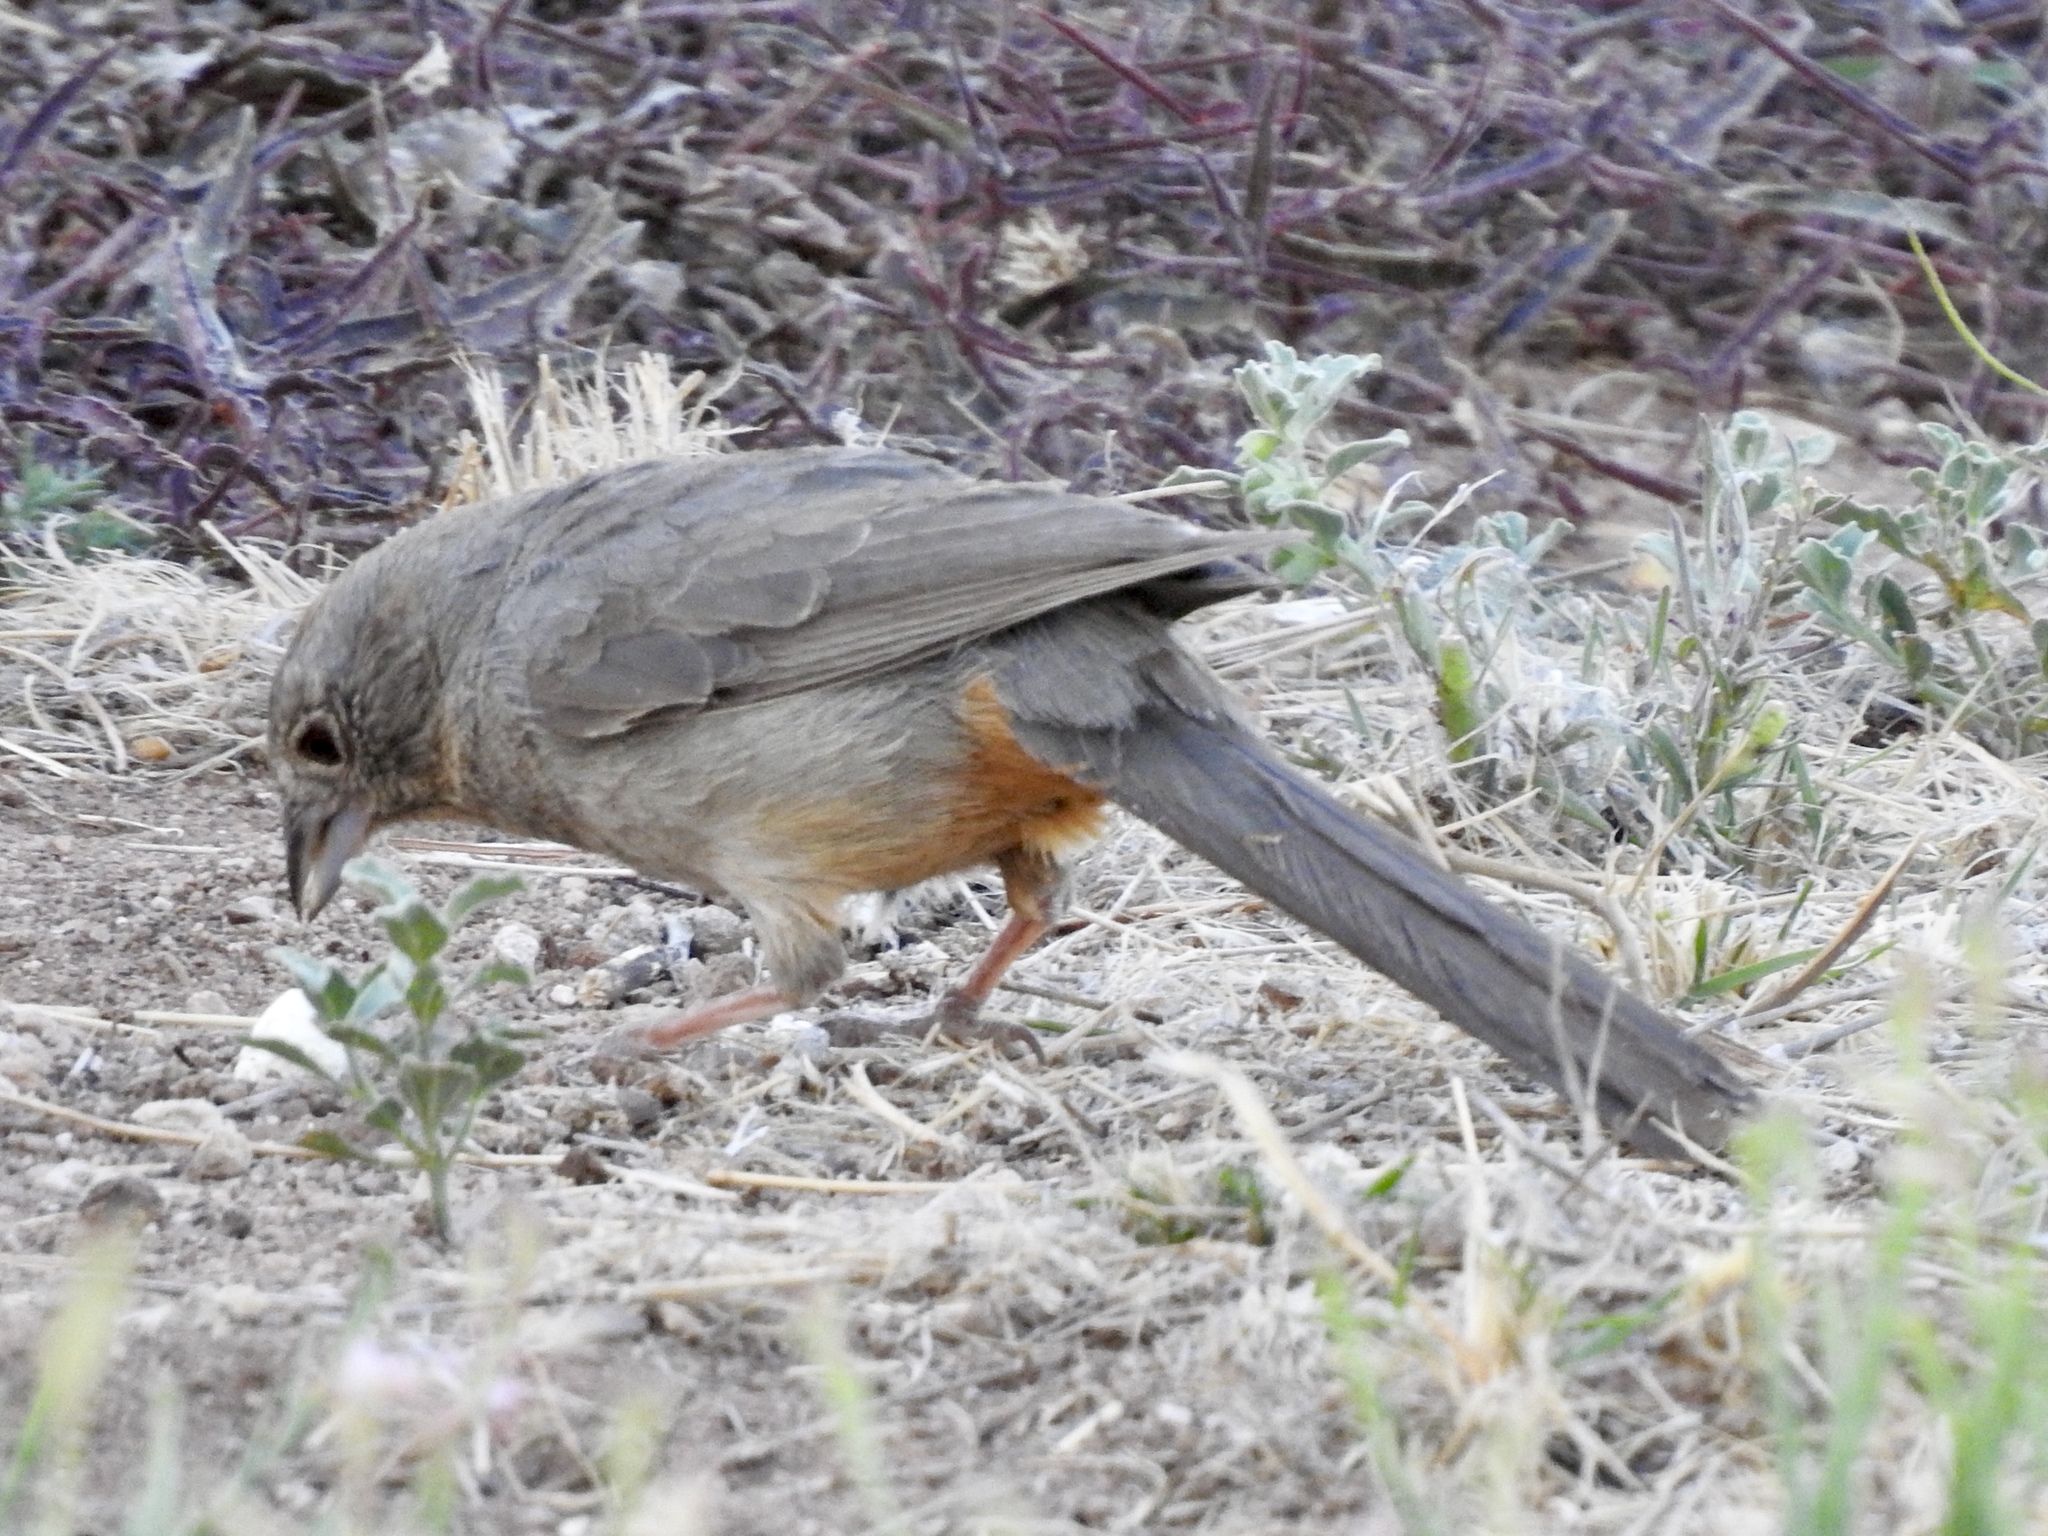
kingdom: Animalia
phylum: Chordata
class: Aves
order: Passeriformes
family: Passerellidae
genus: Melozone
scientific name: Melozone fusca
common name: Canyon towhee
